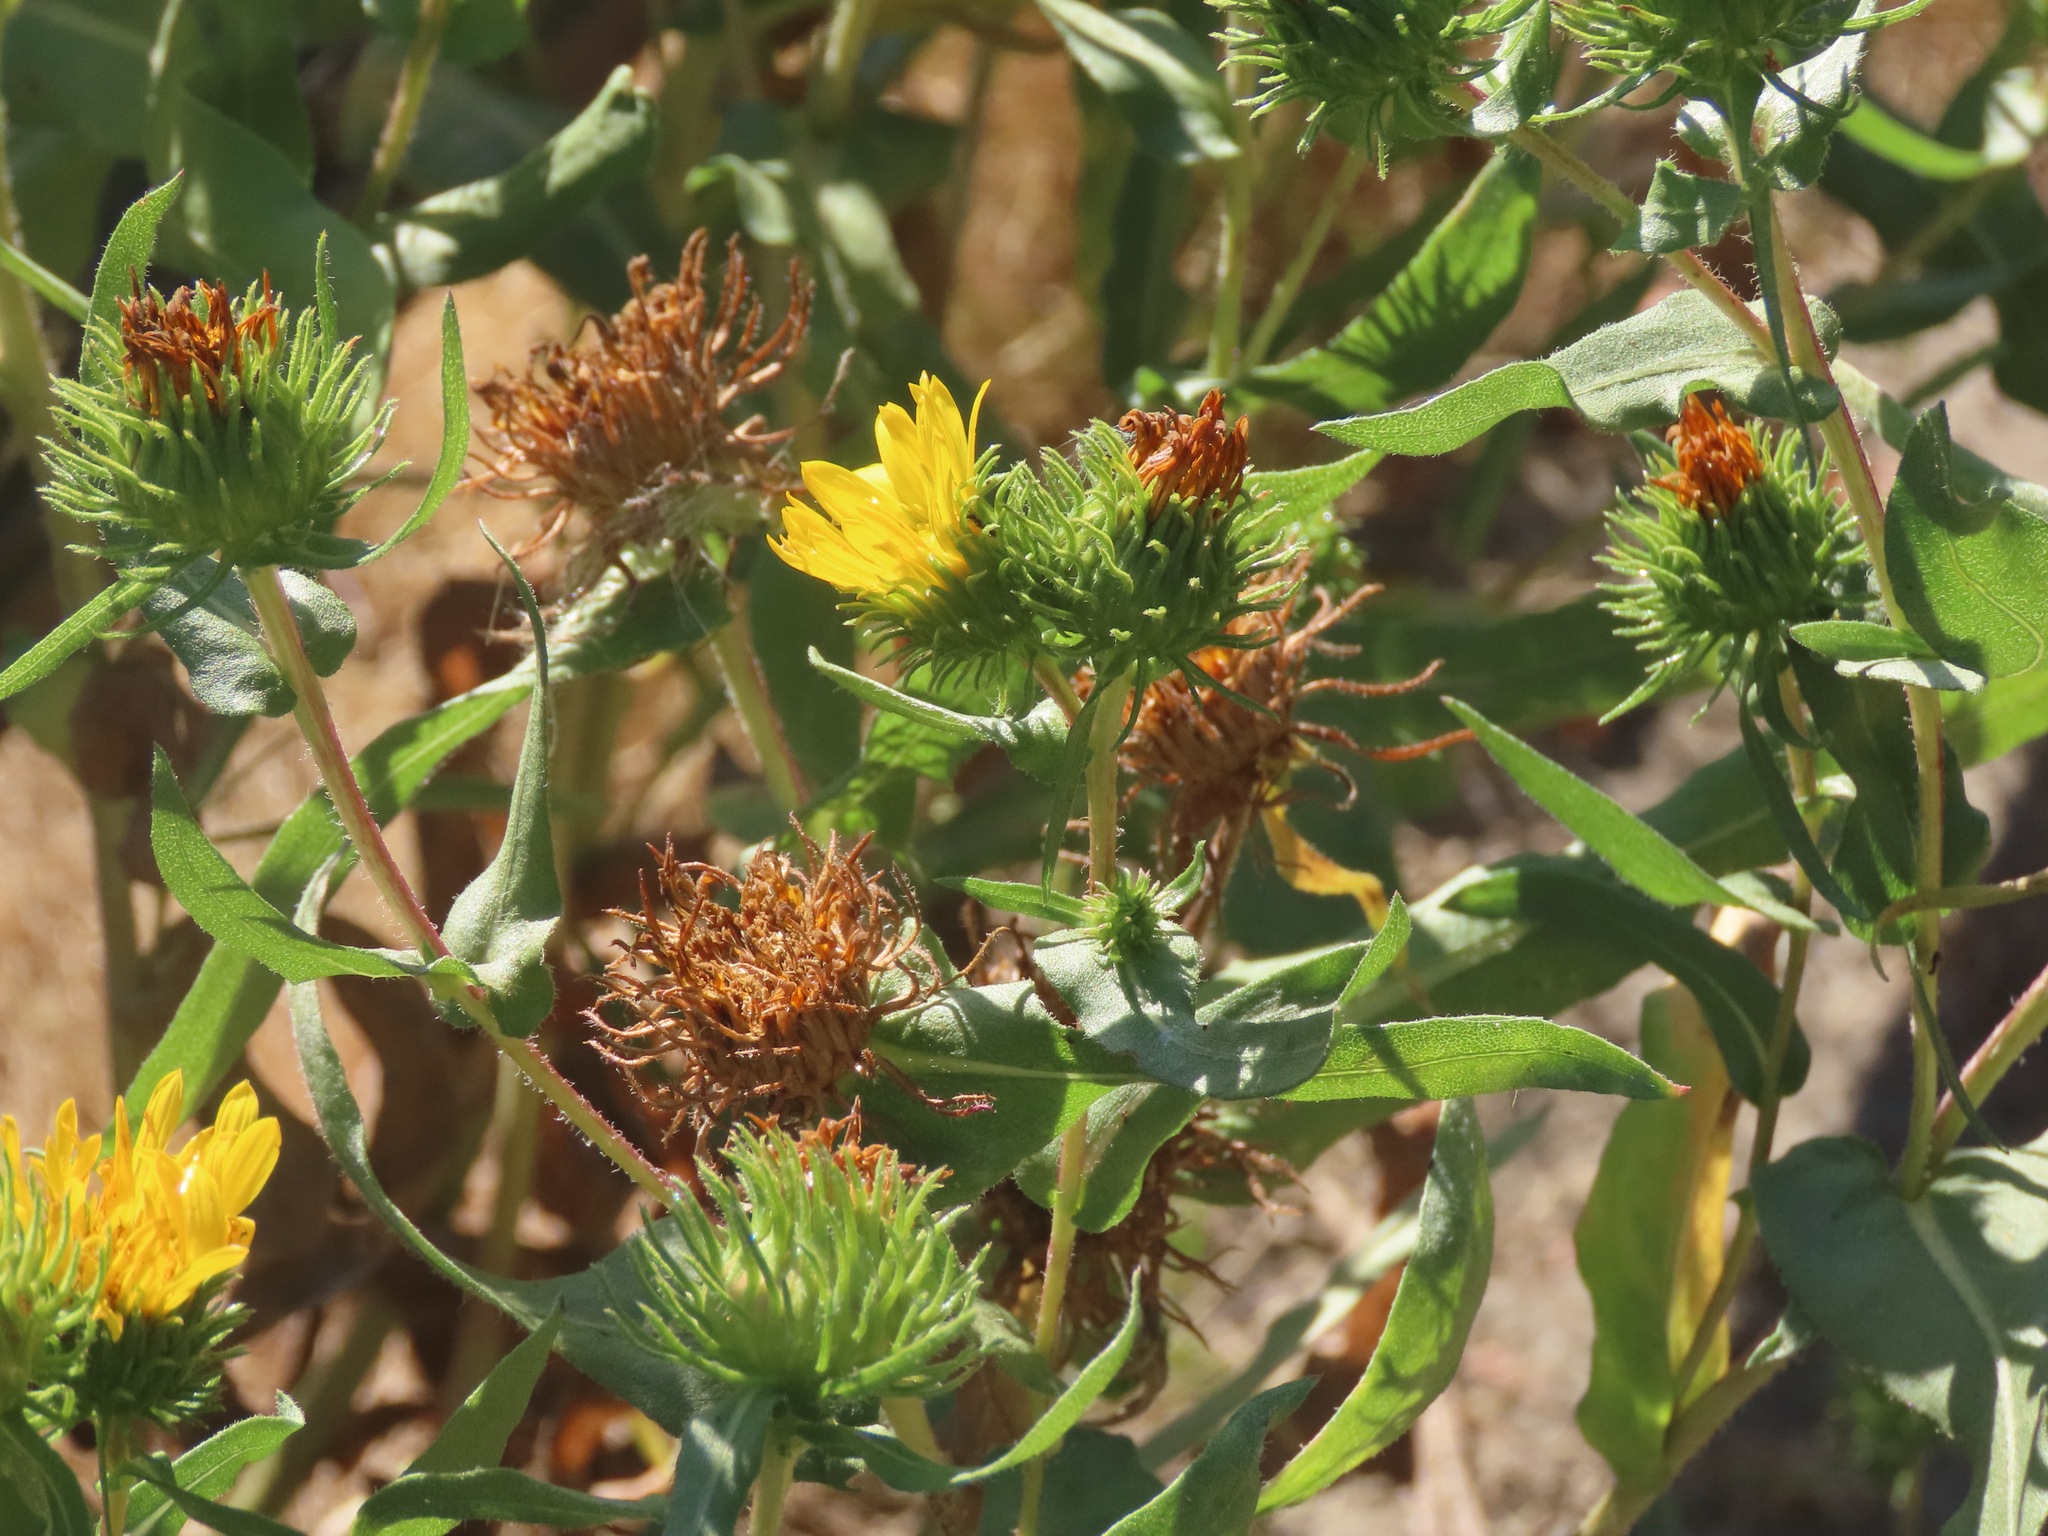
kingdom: Plantae
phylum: Tracheophyta
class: Magnoliopsida
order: Asterales
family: Asteraceae
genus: Grindelia
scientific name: Grindelia hirsutula
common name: Hairy gumweed
